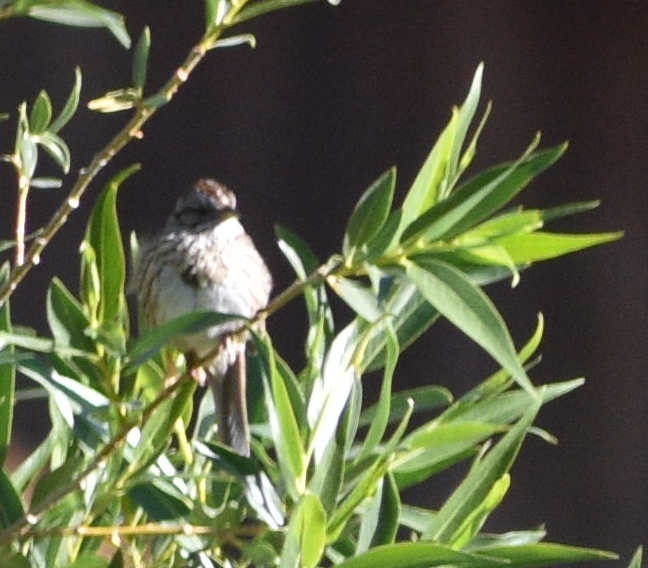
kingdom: Animalia
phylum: Chordata
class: Aves
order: Passeriformes
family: Passerellidae
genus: Melospiza
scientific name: Melospiza melodia
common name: Song sparrow
